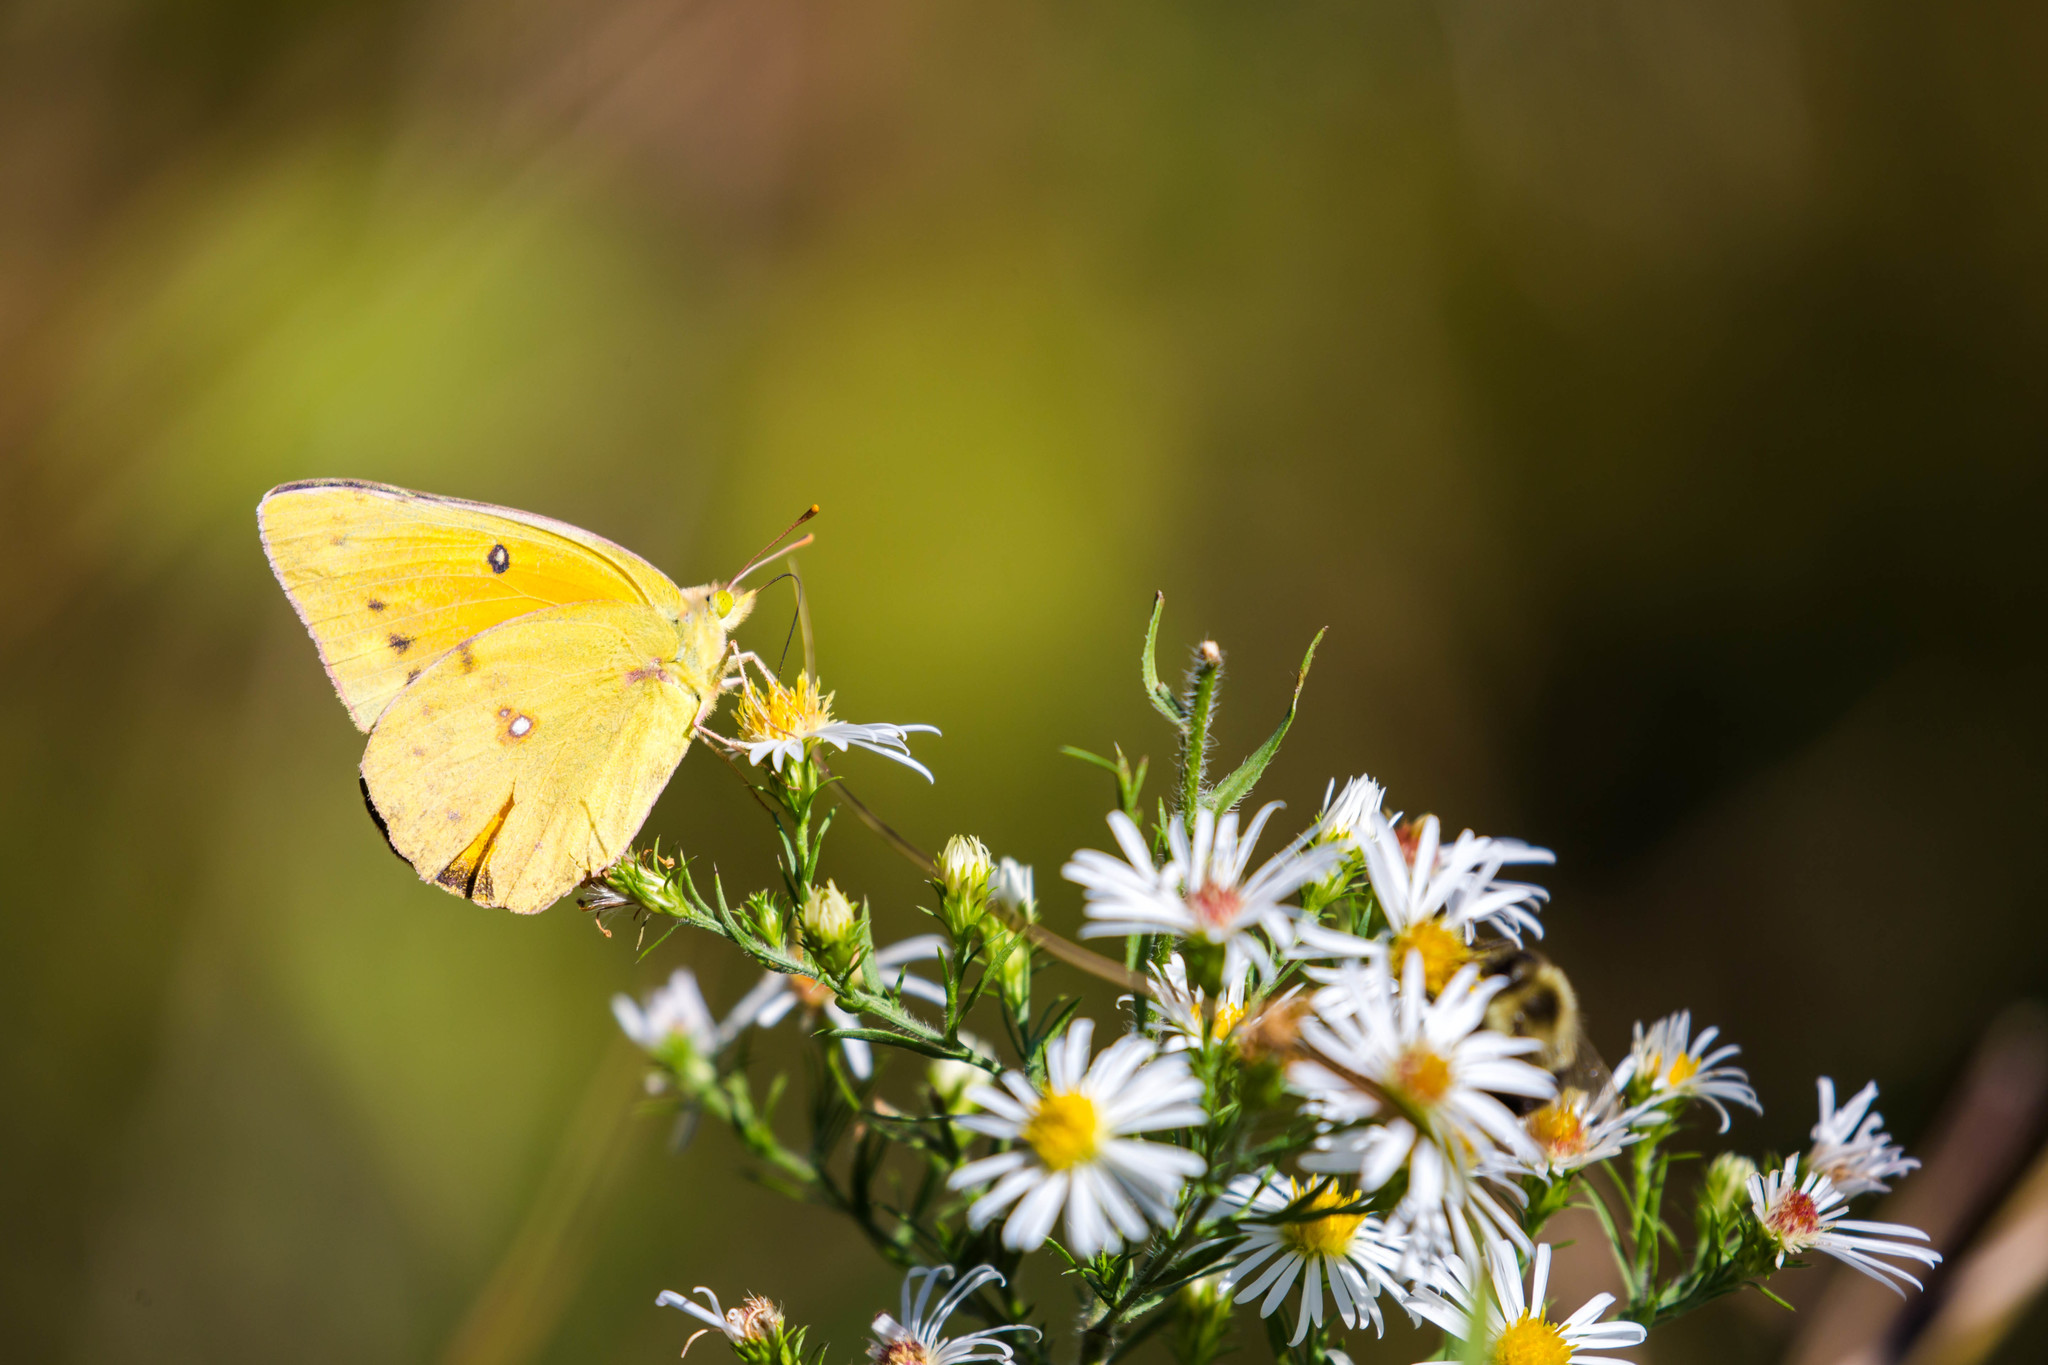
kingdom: Animalia
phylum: Arthropoda
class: Insecta
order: Lepidoptera
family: Pieridae
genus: Colias
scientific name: Colias eurytheme
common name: Alfalfa butterfly
